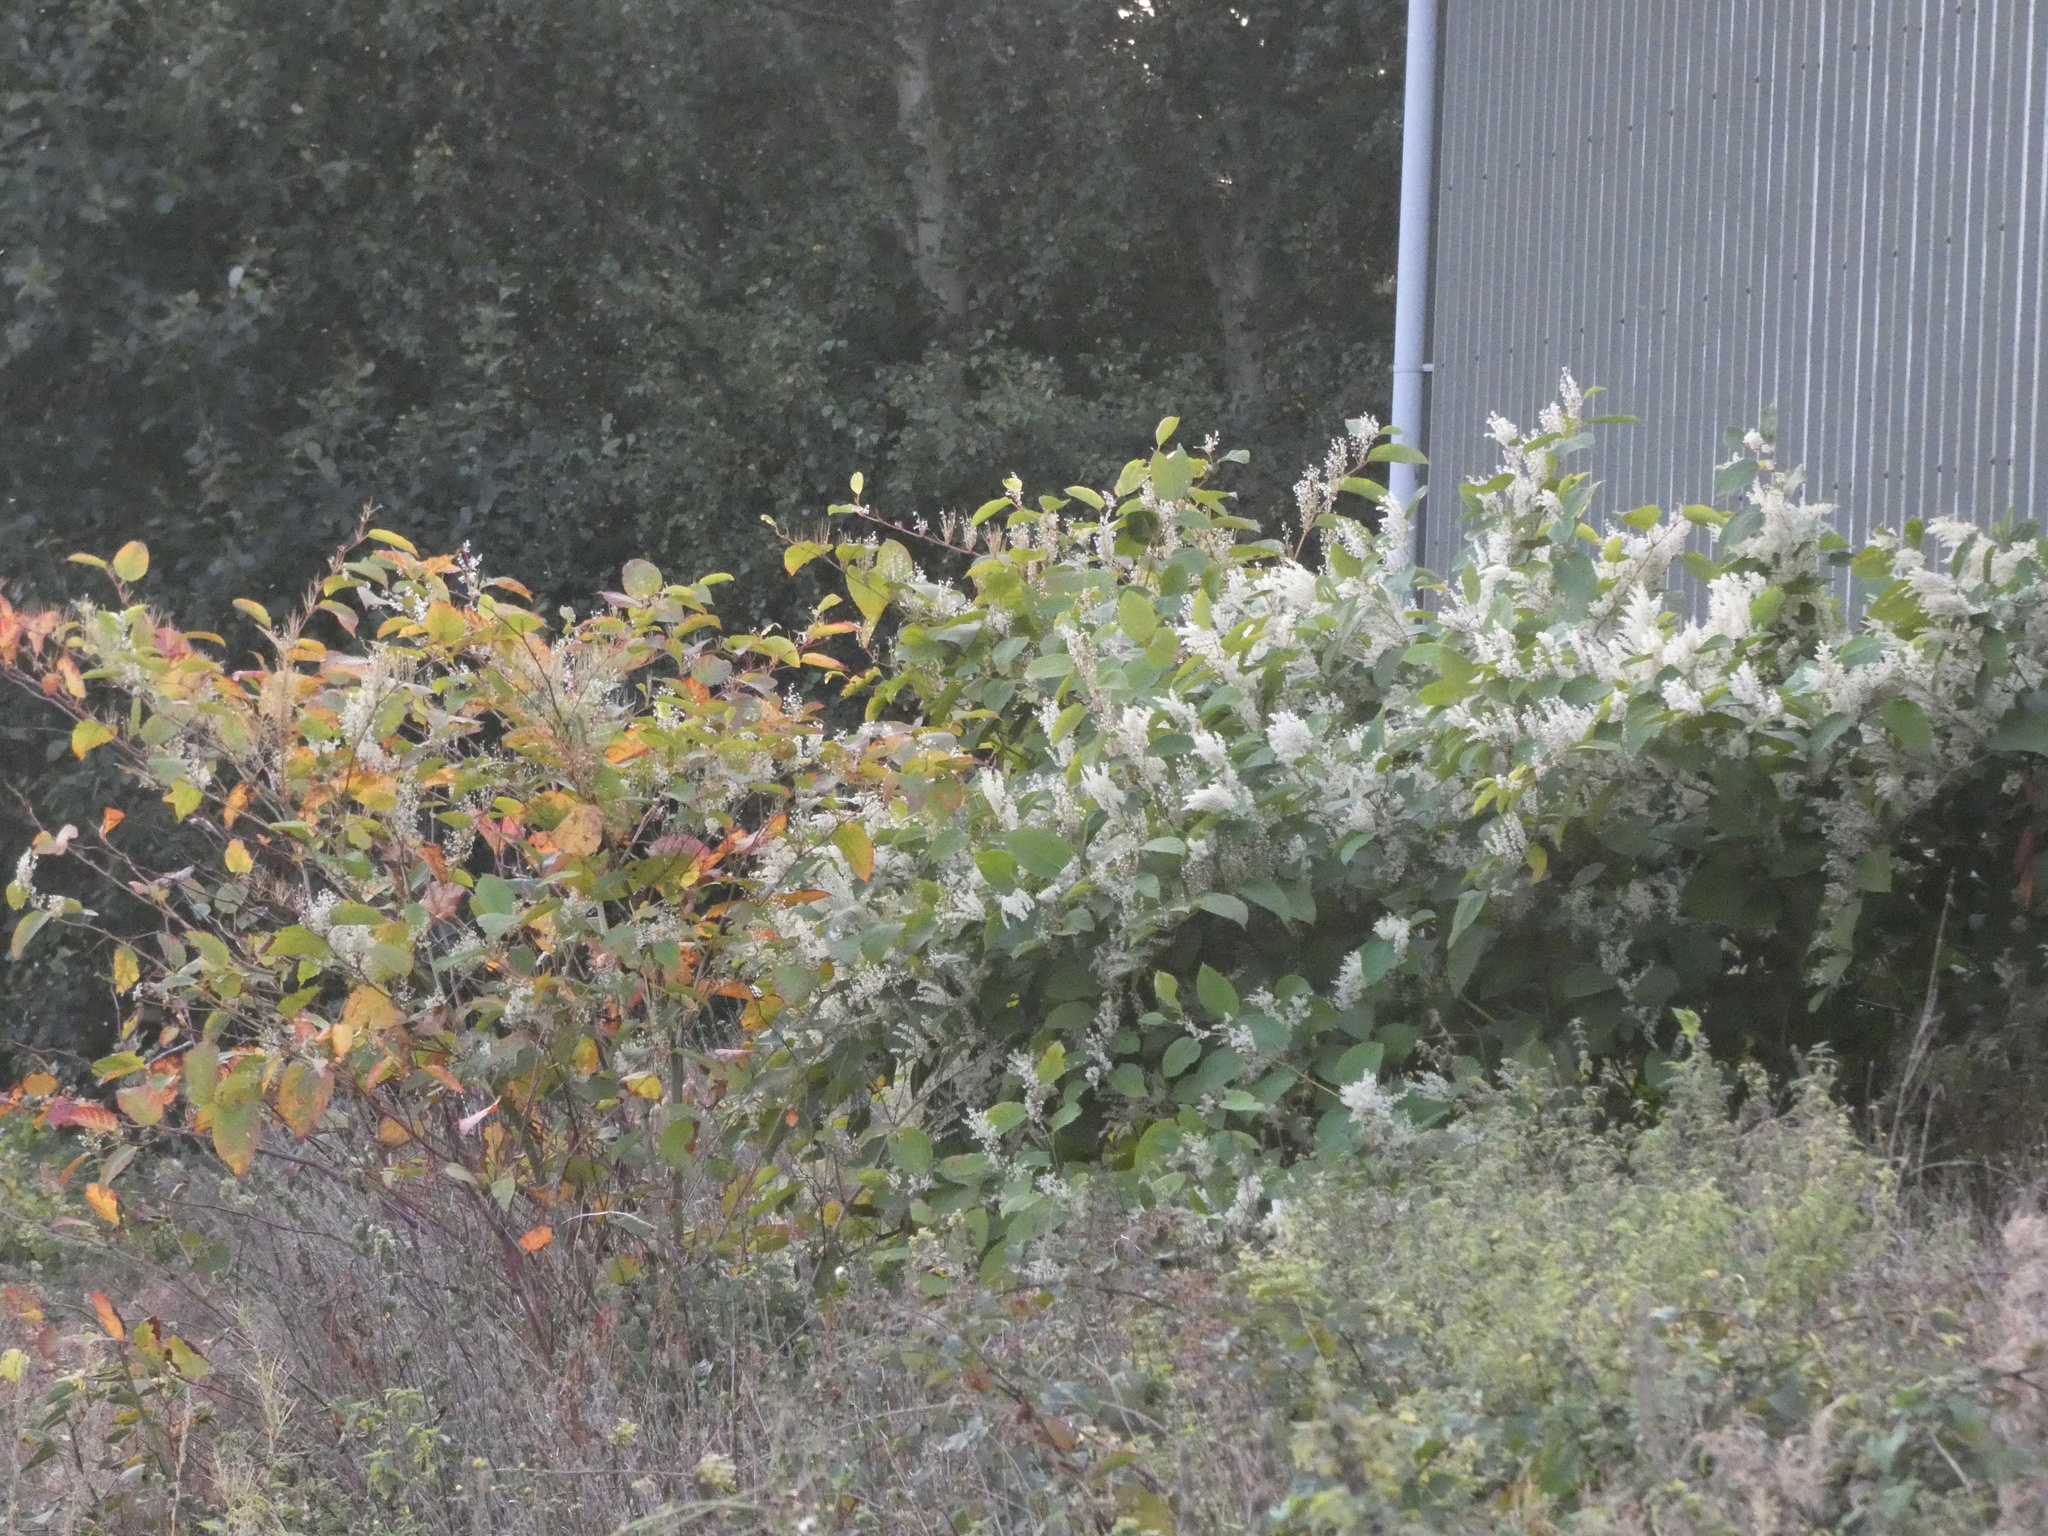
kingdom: Plantae
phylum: Tracheophyta
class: Magnoliopsida
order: Caryophyllales
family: Polygonaceae
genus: Reynoutria
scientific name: Reynoutria bohemica
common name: Bohemian knotweed
